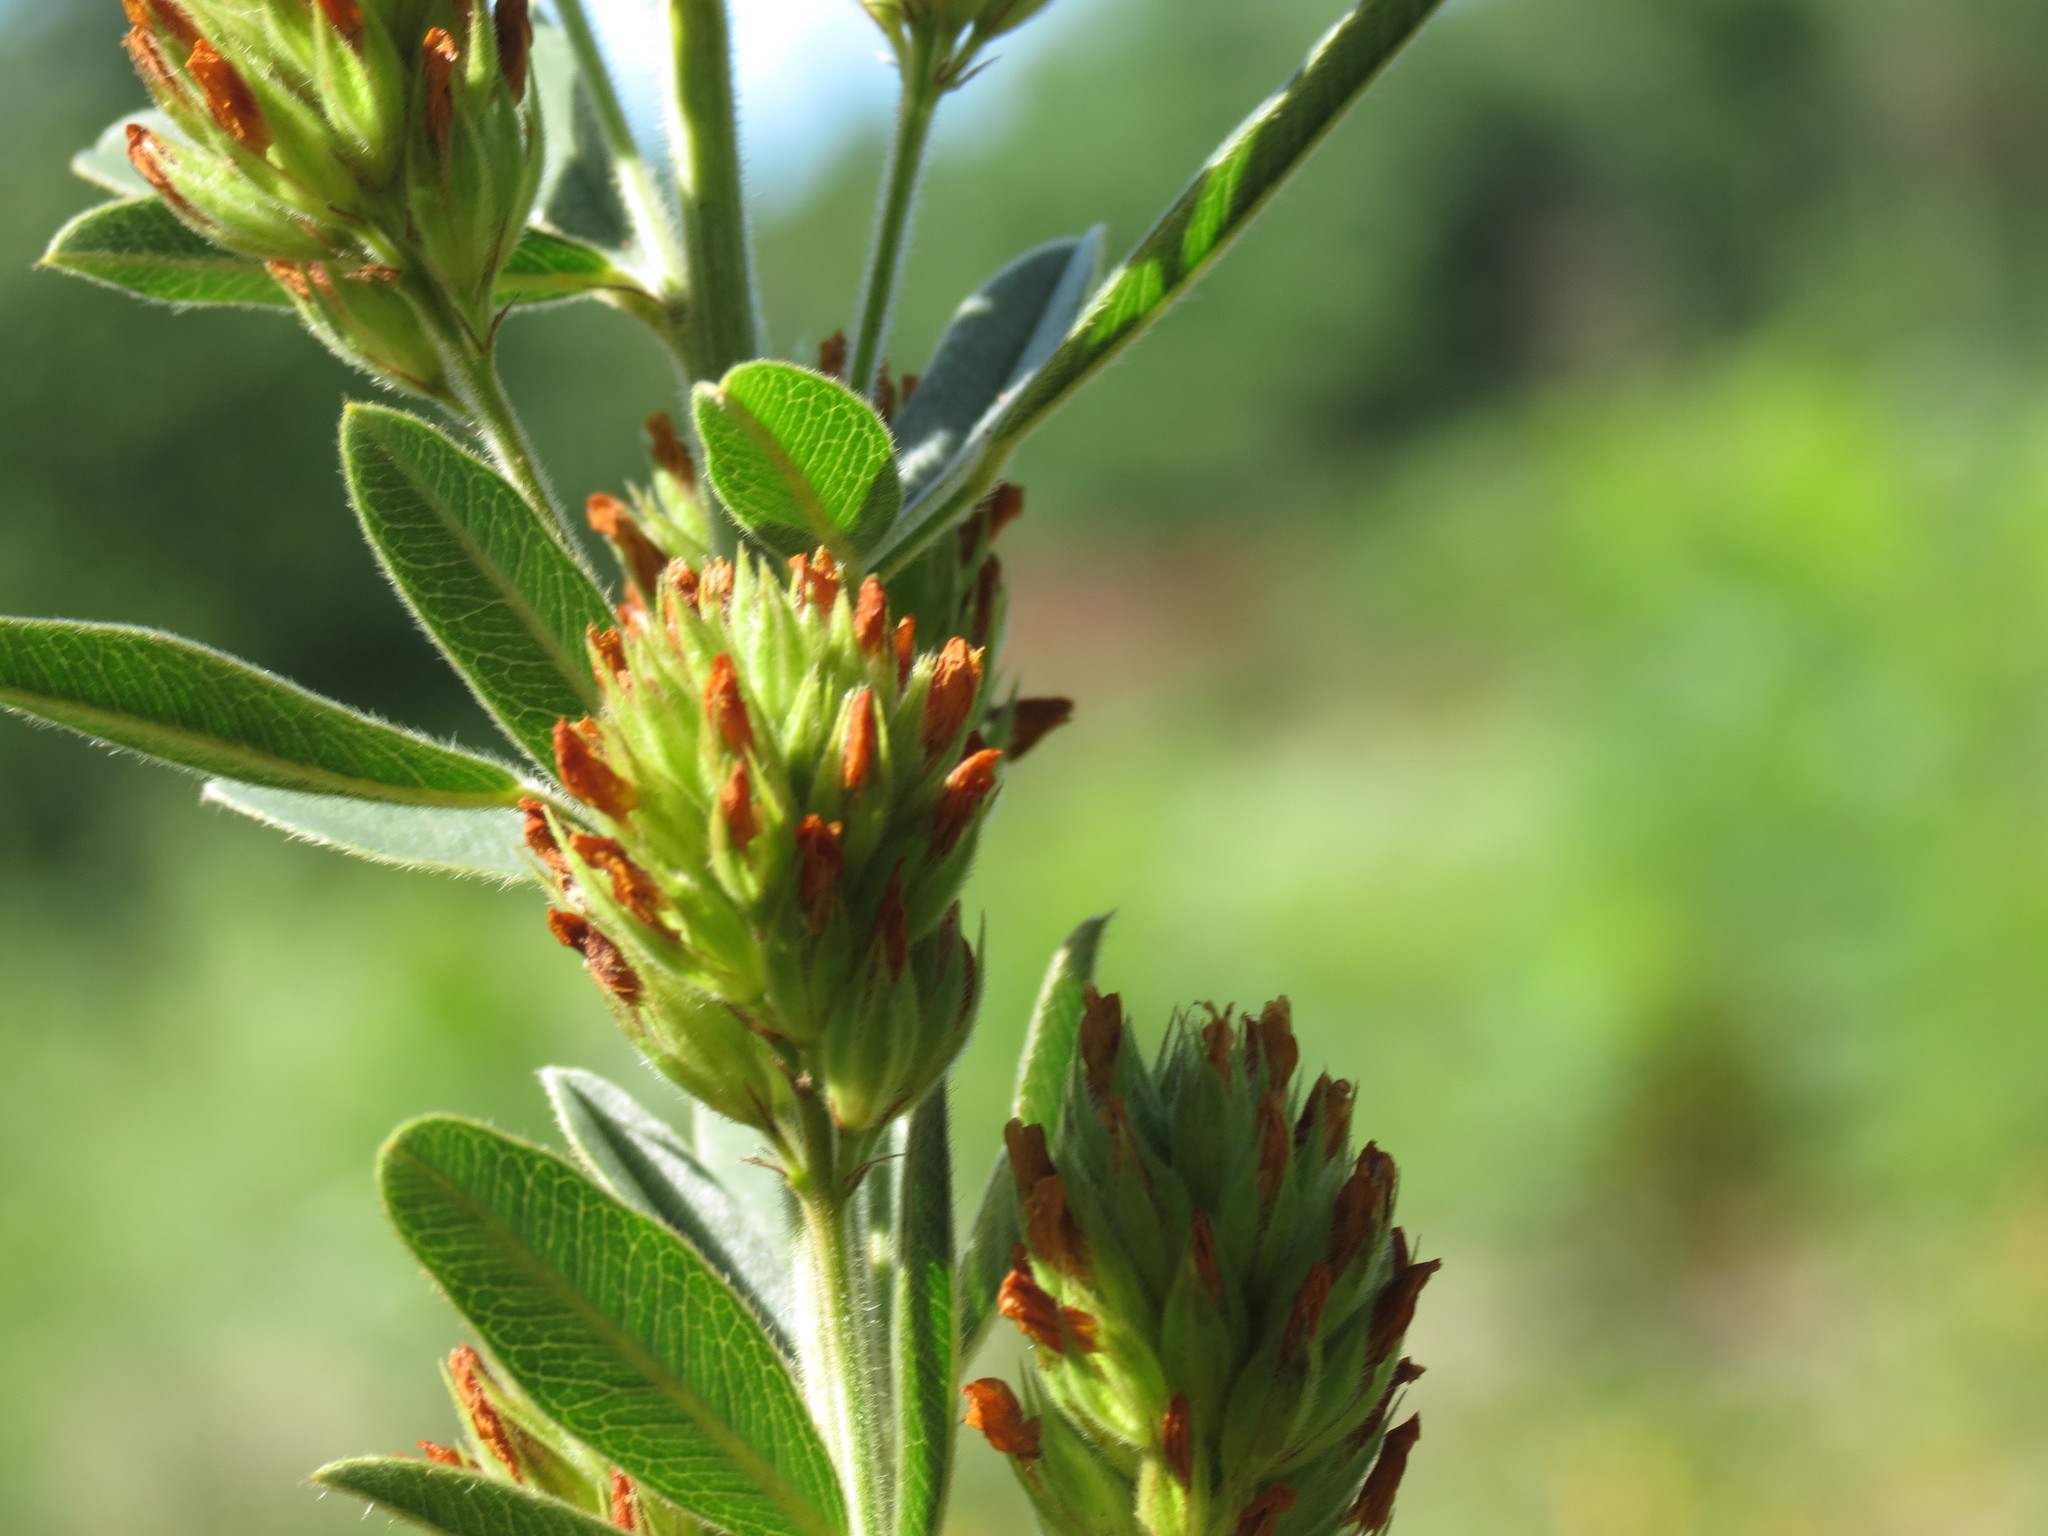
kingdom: Plantae
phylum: Tracheophyta
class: Magnoliopsida
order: Fabales
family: Fabaceae
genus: Lespedeza
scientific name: Lespedeza capitata
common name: Dusty clover
